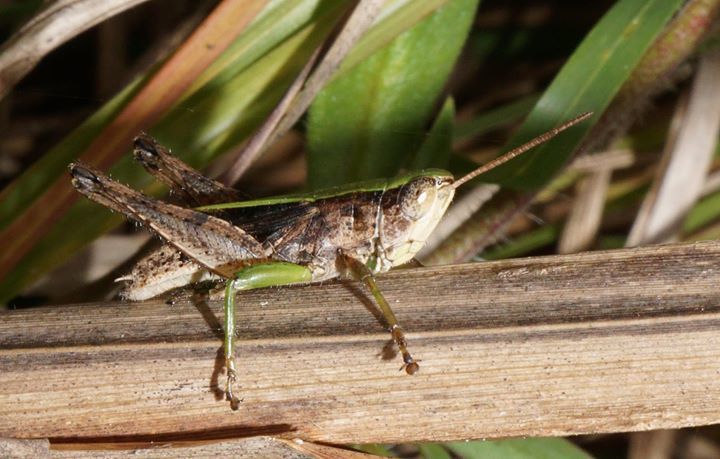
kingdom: Animalia
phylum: Arthropoda
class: Insecta
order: Orthoptera
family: Acrididae
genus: Dichromorpha
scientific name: Dichromorpha viridis
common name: Short-winged green grasshopper
